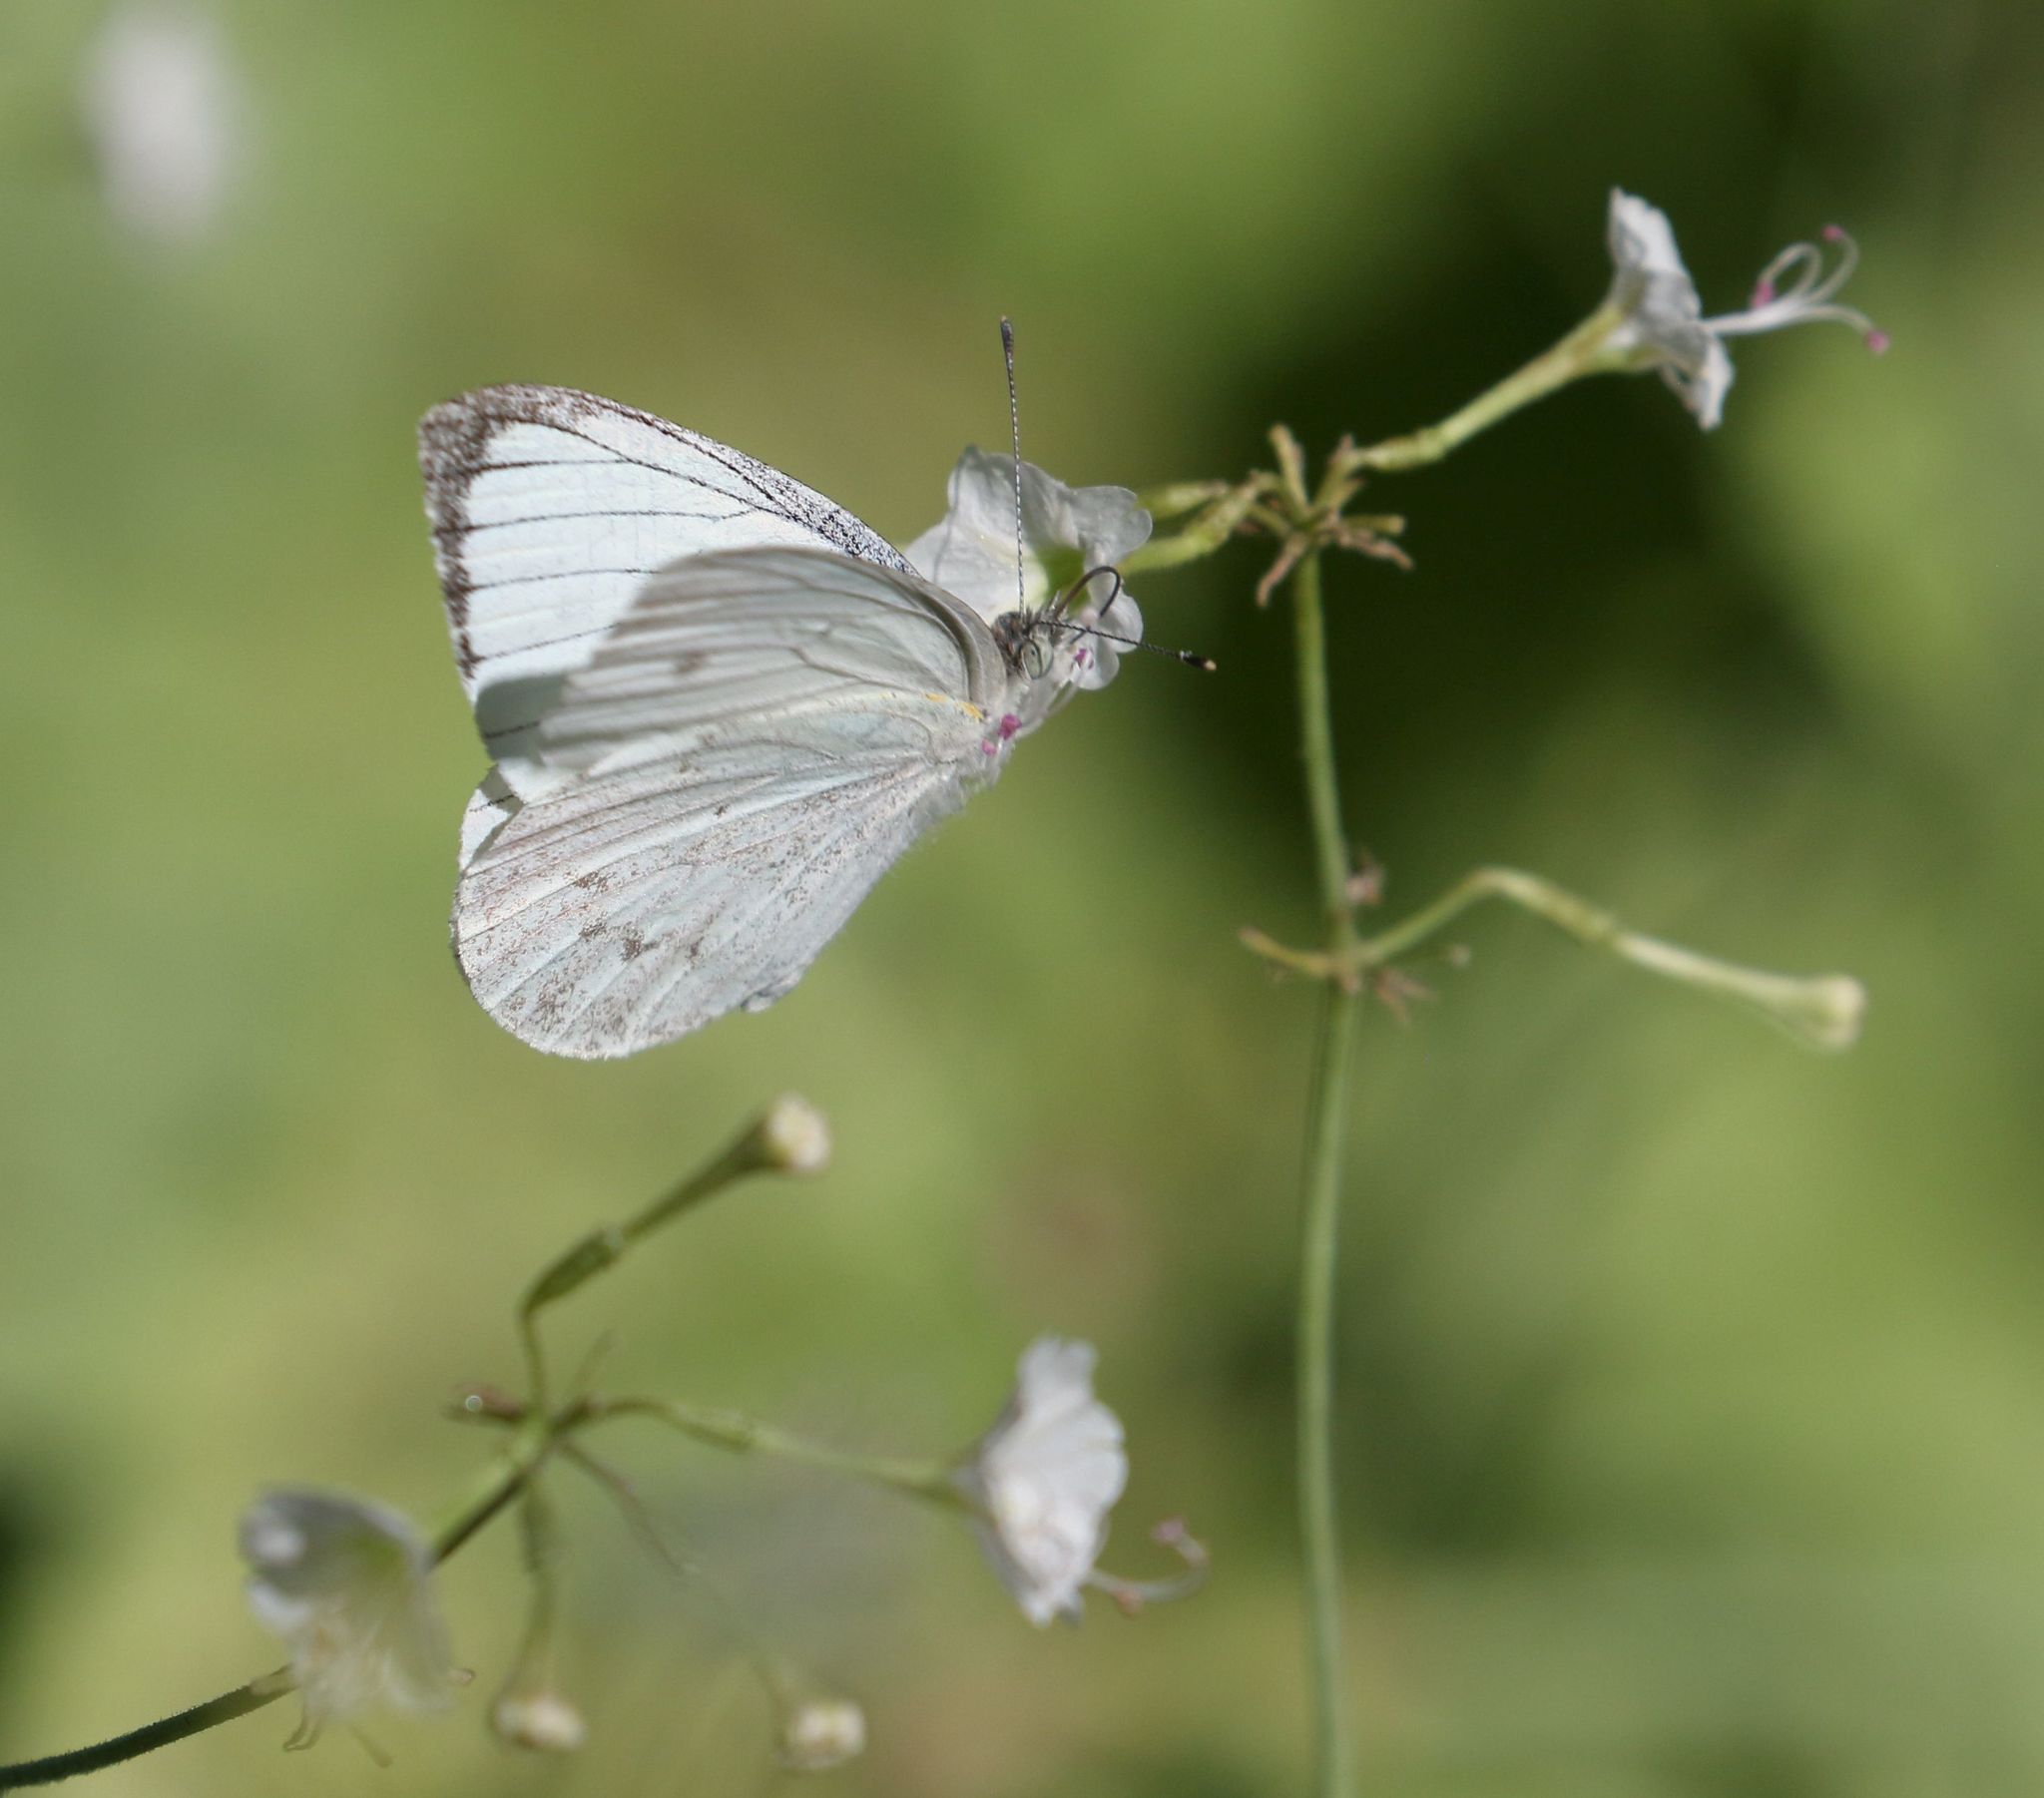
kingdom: Animalia
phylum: Arthropoda
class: Insecta
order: Lepidoptera
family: Pieridae
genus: Dixeia
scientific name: Dixeia doxo
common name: Black-veined small white
